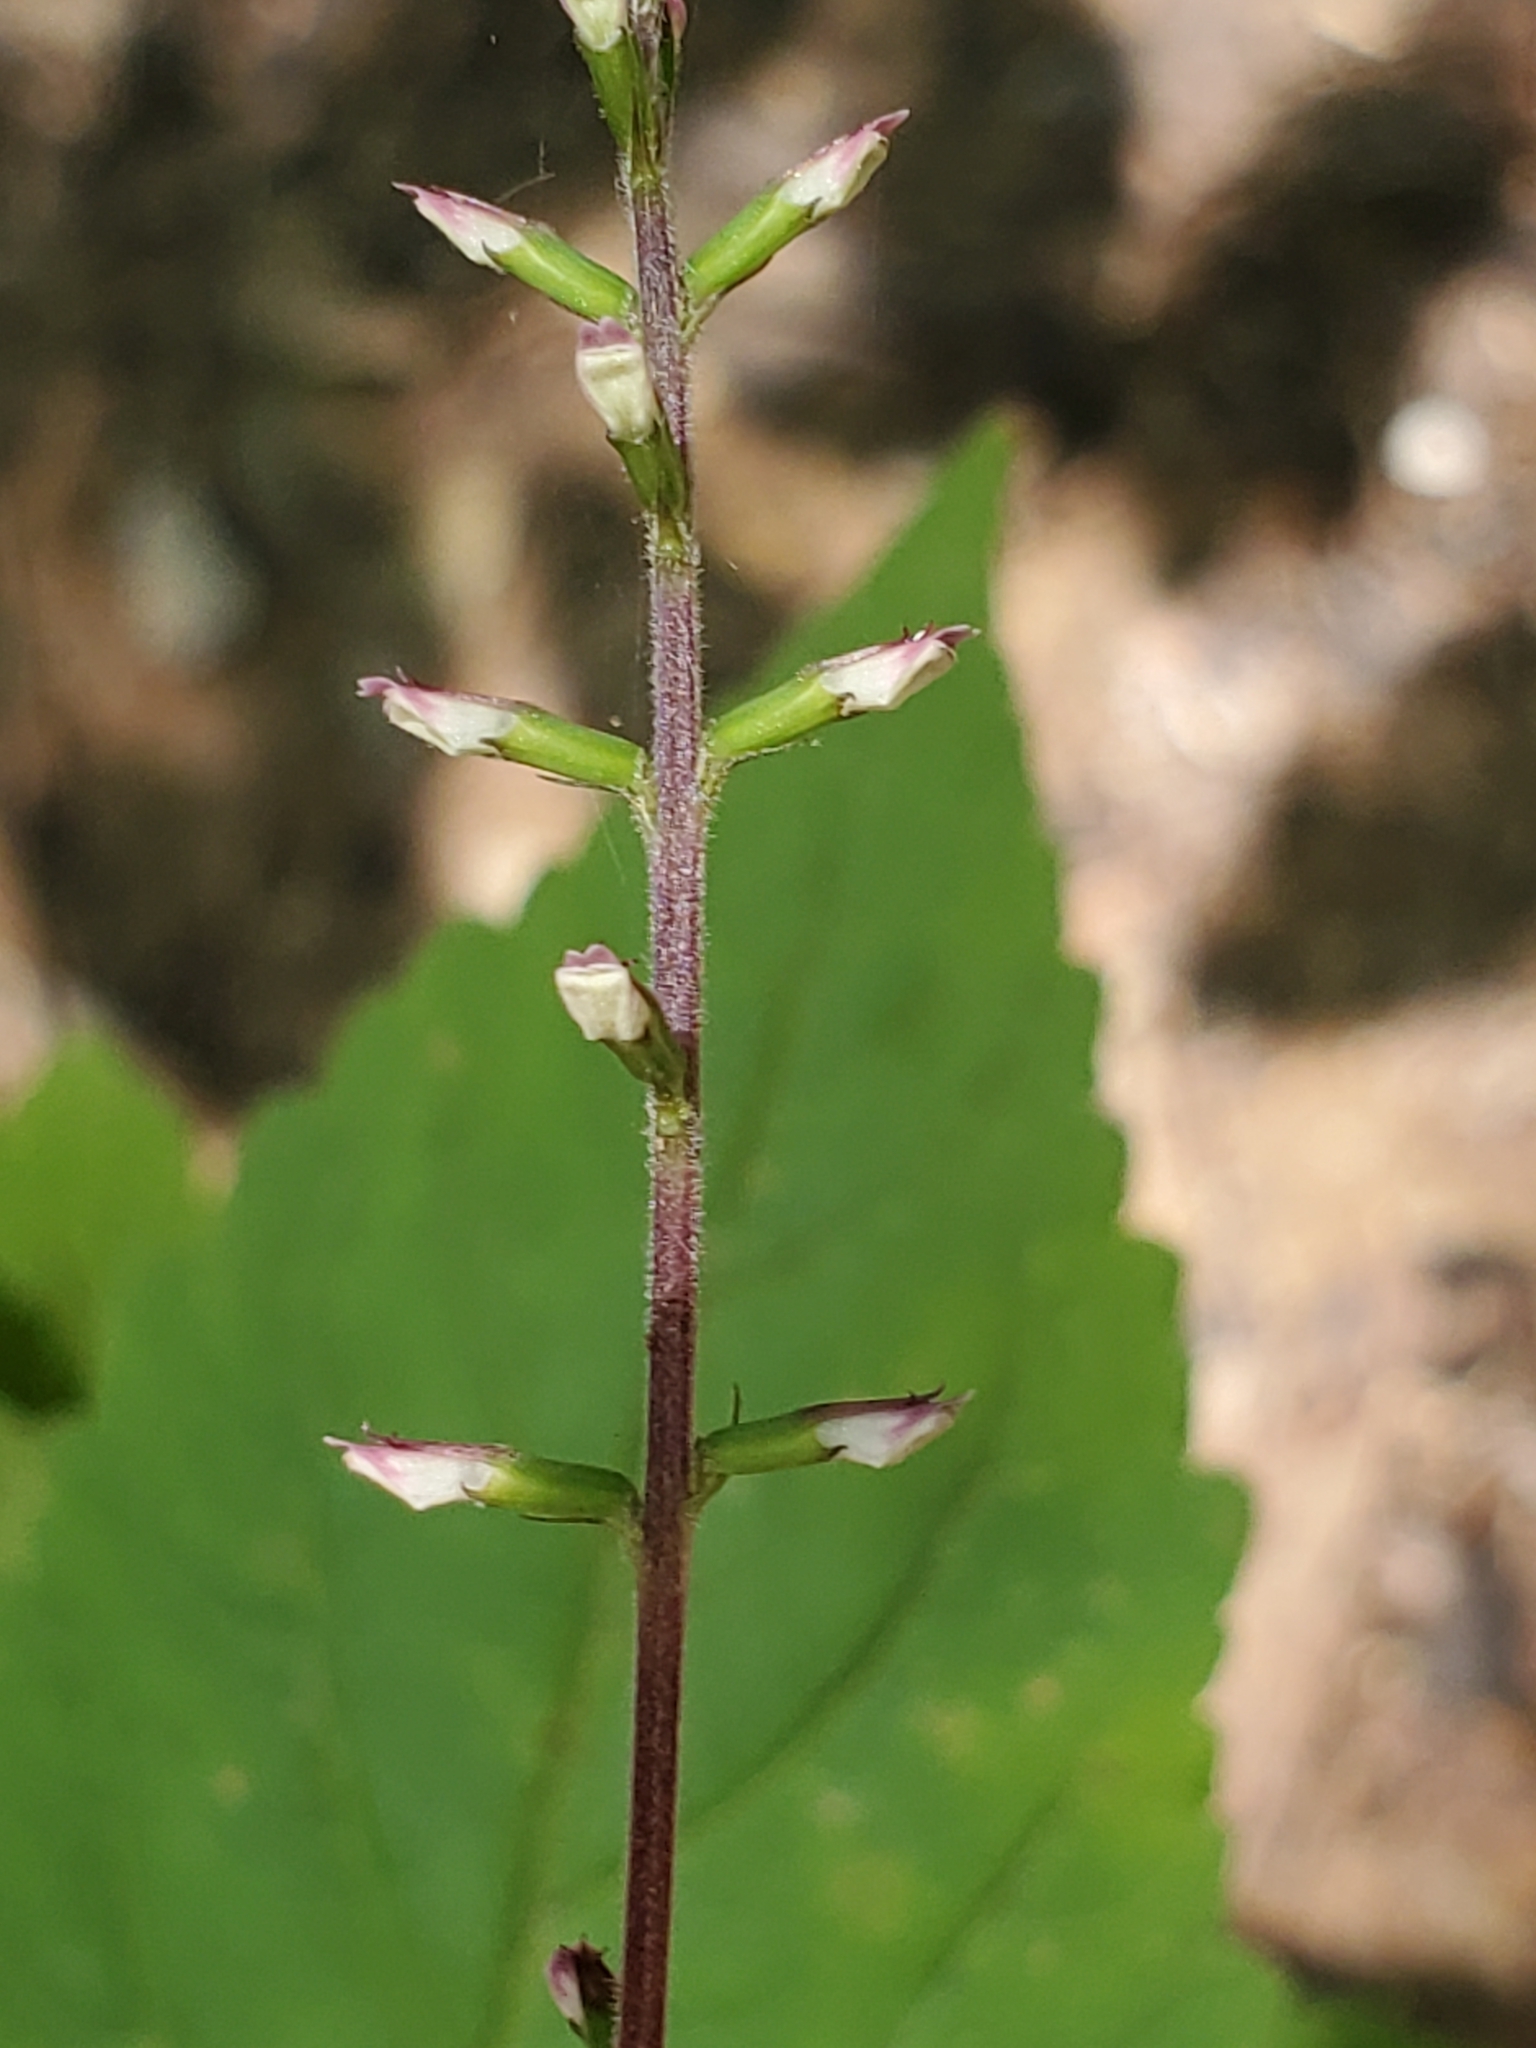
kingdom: Plantae
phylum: Tracheophyta
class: Magnoliopsida
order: Lamiales
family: Phrymaceae
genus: Phryma
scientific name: Phryma leptostachya
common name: American lopseed
